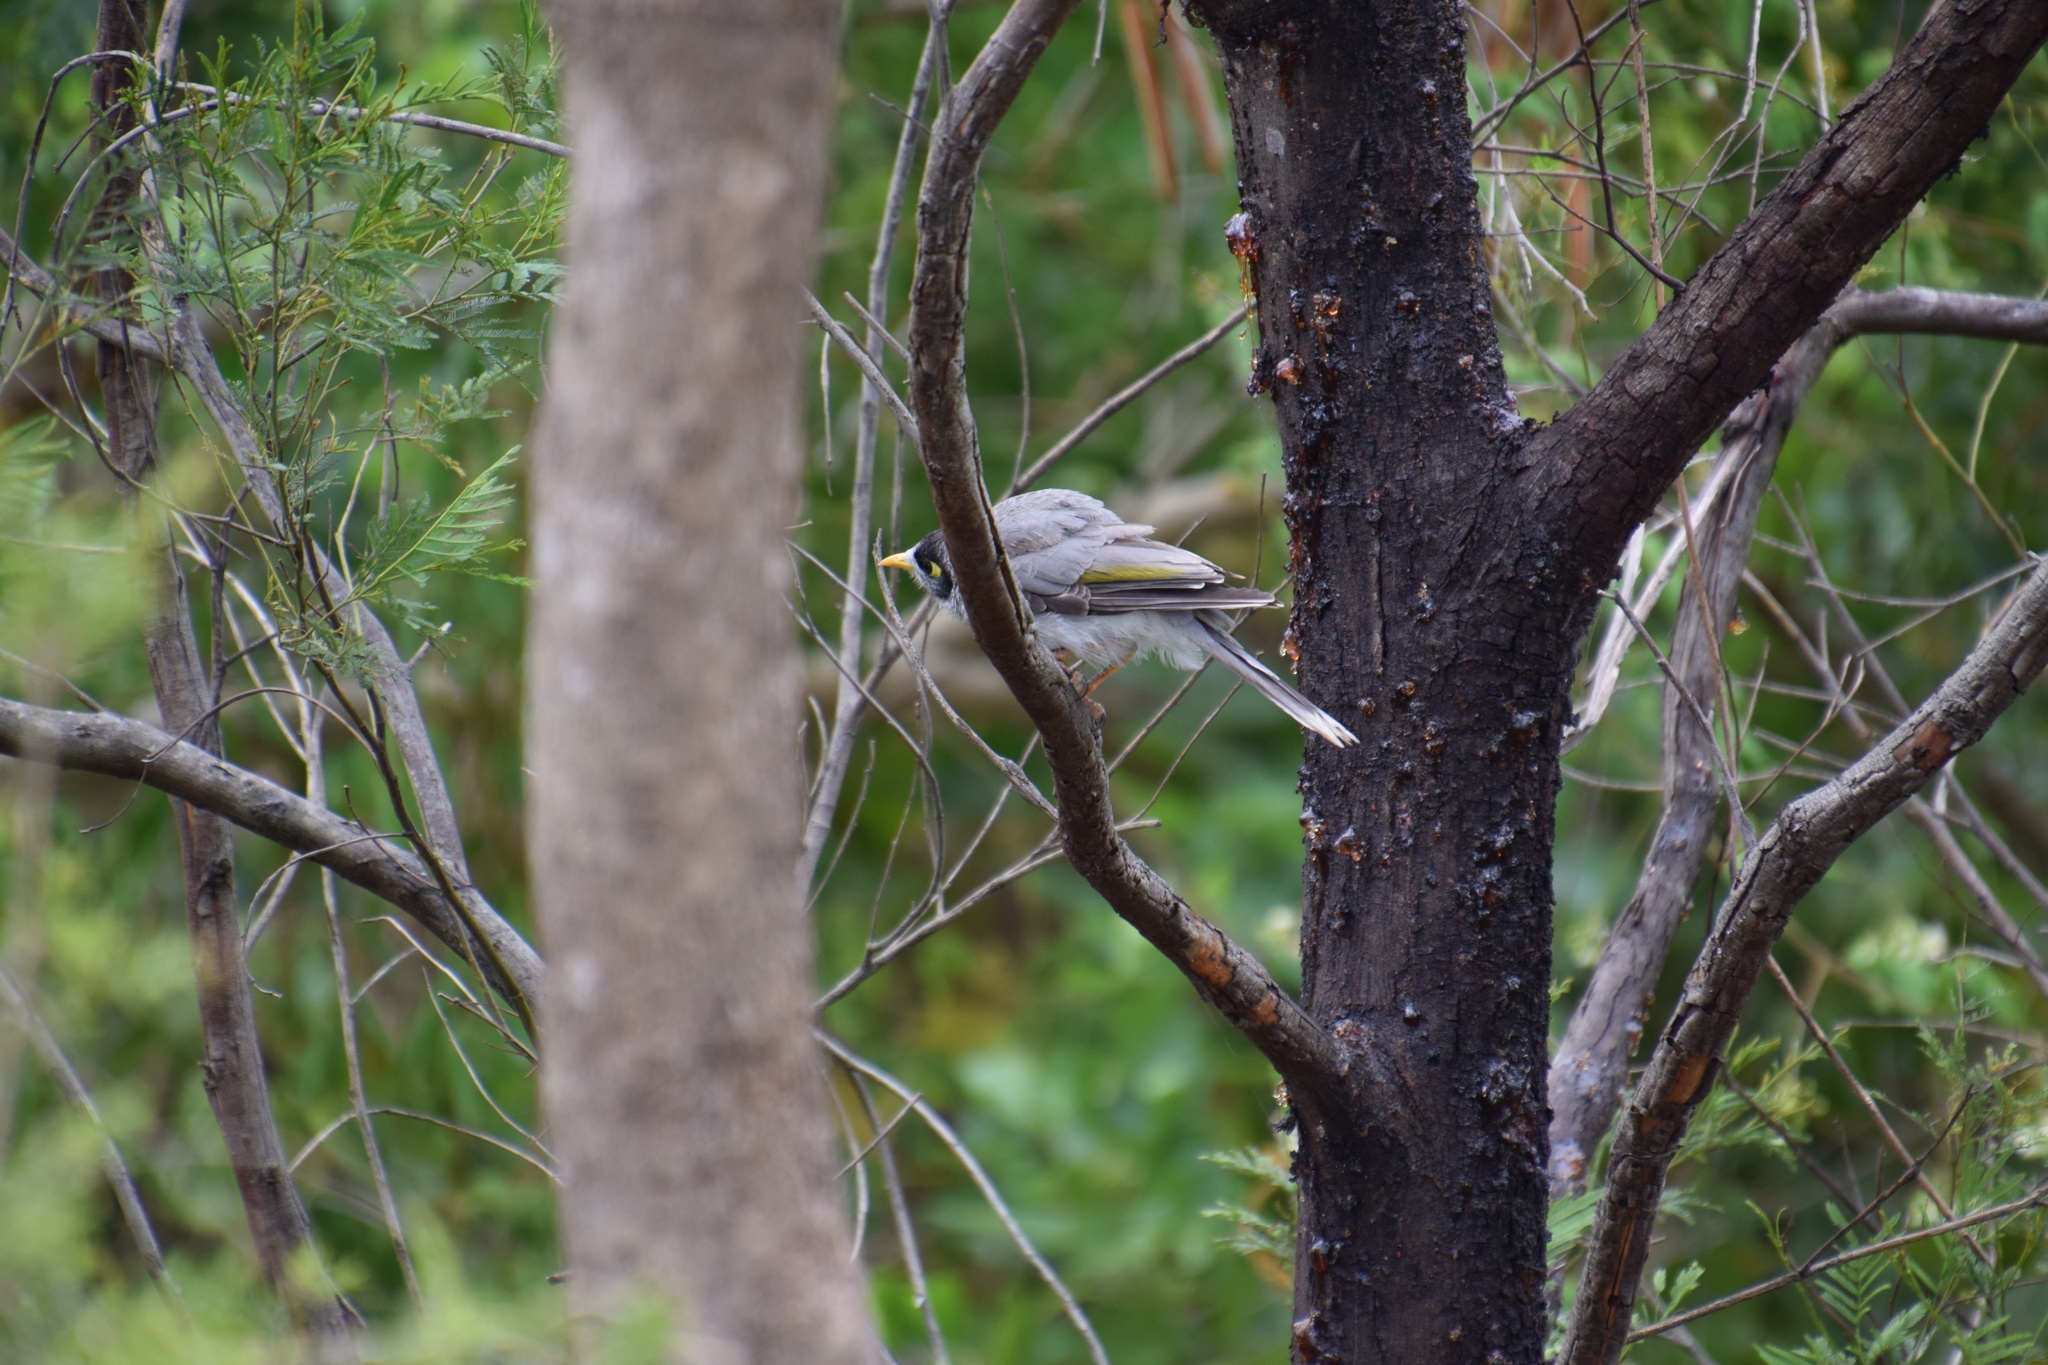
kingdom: Animalia
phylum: Chordata
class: Aves
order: Passeriformes
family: Meliphagidae
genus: Manorina
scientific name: Manorina melanocephala
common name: Noisy miner
